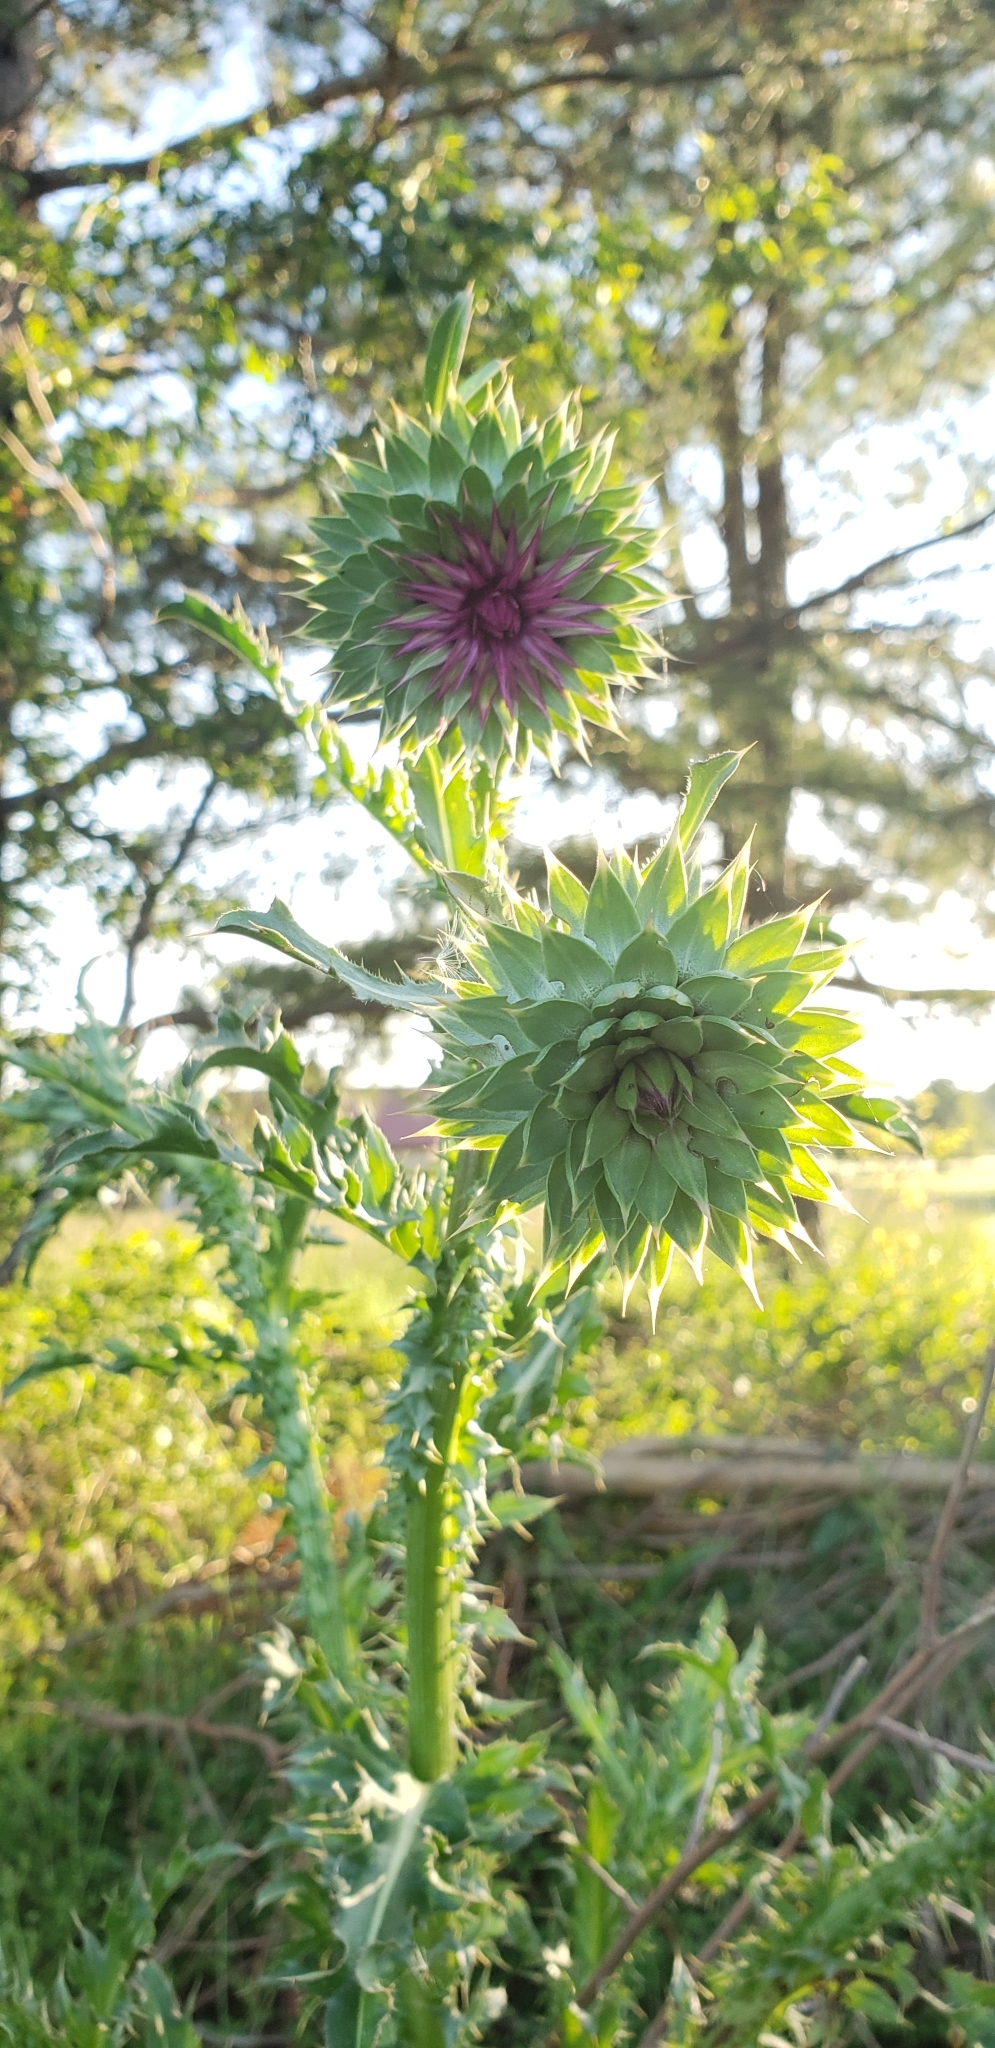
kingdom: Plantae
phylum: Tracheophyta
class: Magnoliopsida
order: Asterales
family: Asteraceae
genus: Carduus
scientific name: Carduus nutans
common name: Musk thistle
